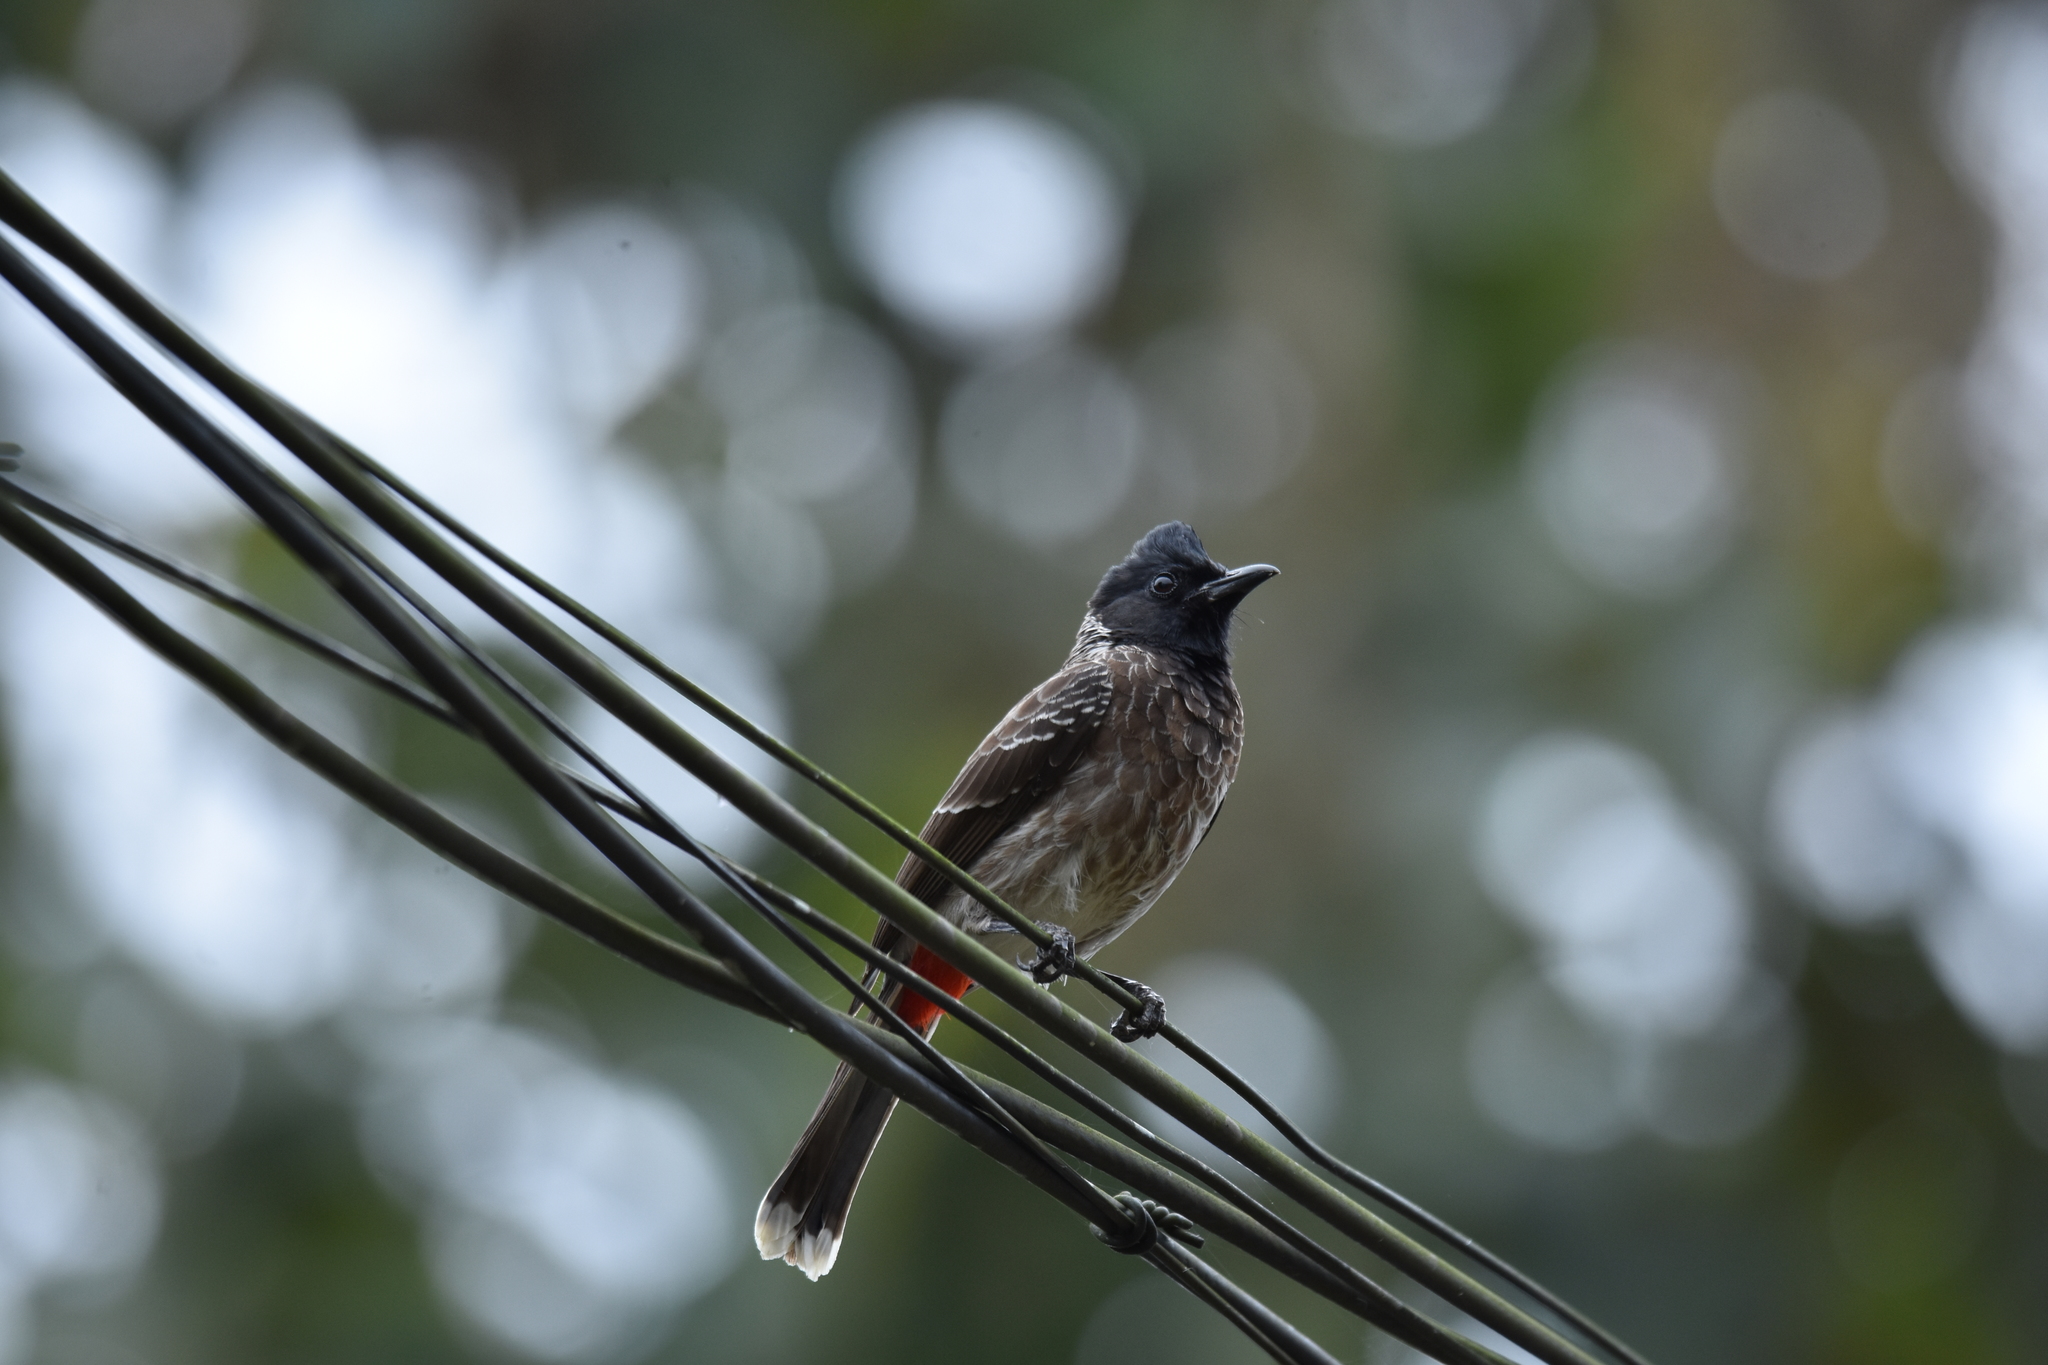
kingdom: Animalia
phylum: Chordata
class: Aves
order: Passeriformes
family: Pycnonotidae
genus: Pycnonotus
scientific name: Pycnonotus cafer
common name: Red-vented bulbul
